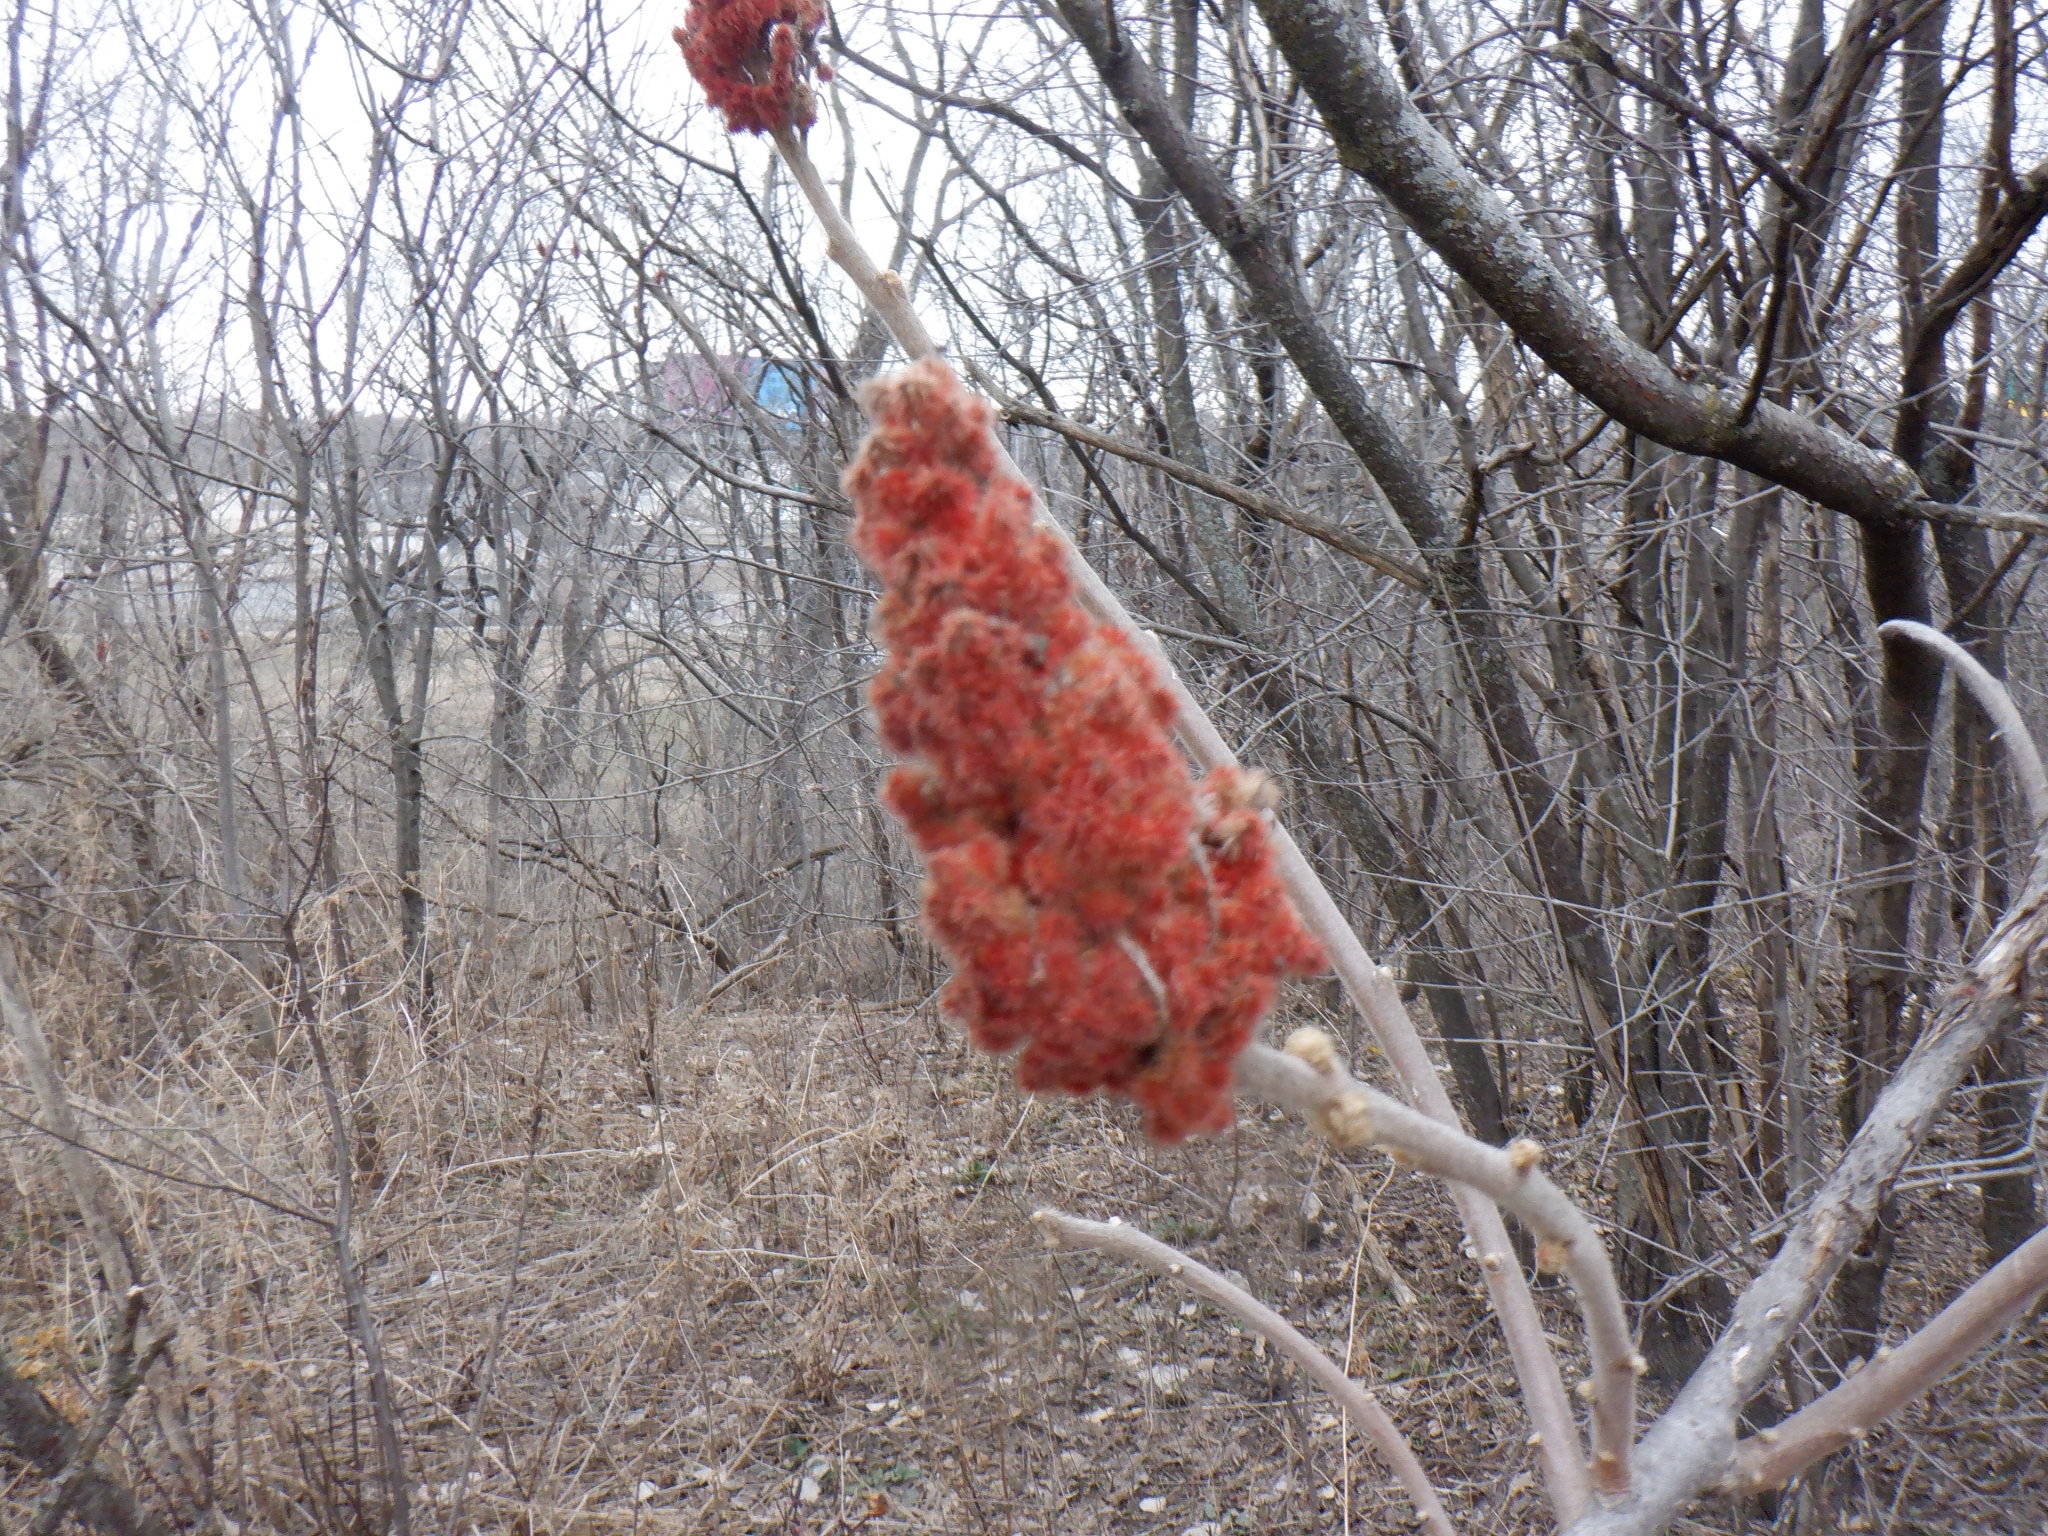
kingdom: Plantae
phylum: Tracheophyta
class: Magnoliopsida
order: Sapindales
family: Anacardiaceae
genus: Rhus
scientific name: Rhus typhina
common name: Staghorn sumac
